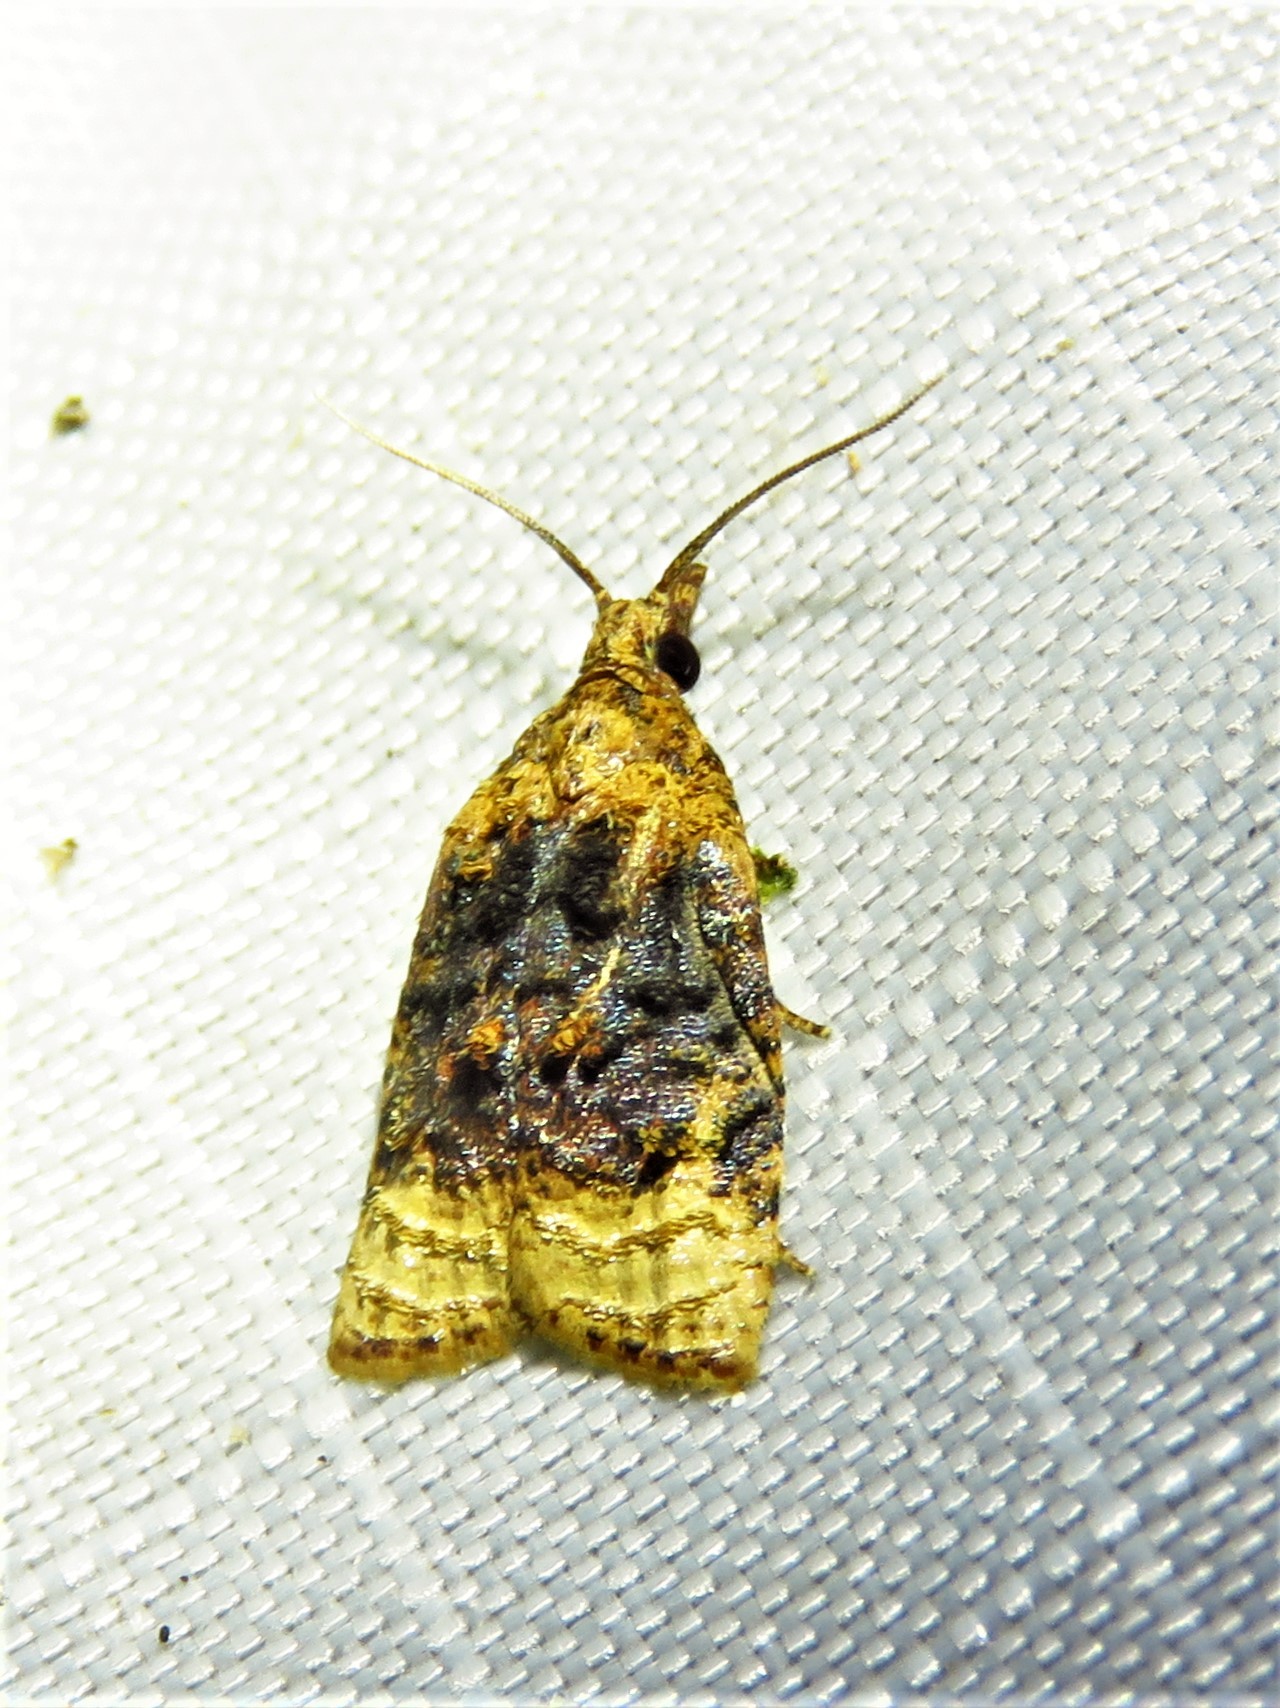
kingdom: Animalia
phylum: Arthropoda
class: Insecta
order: Lepidoptera
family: Tortricidae
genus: Platynota
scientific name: Platynota flavedana
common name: Black-shaded platynota moth
